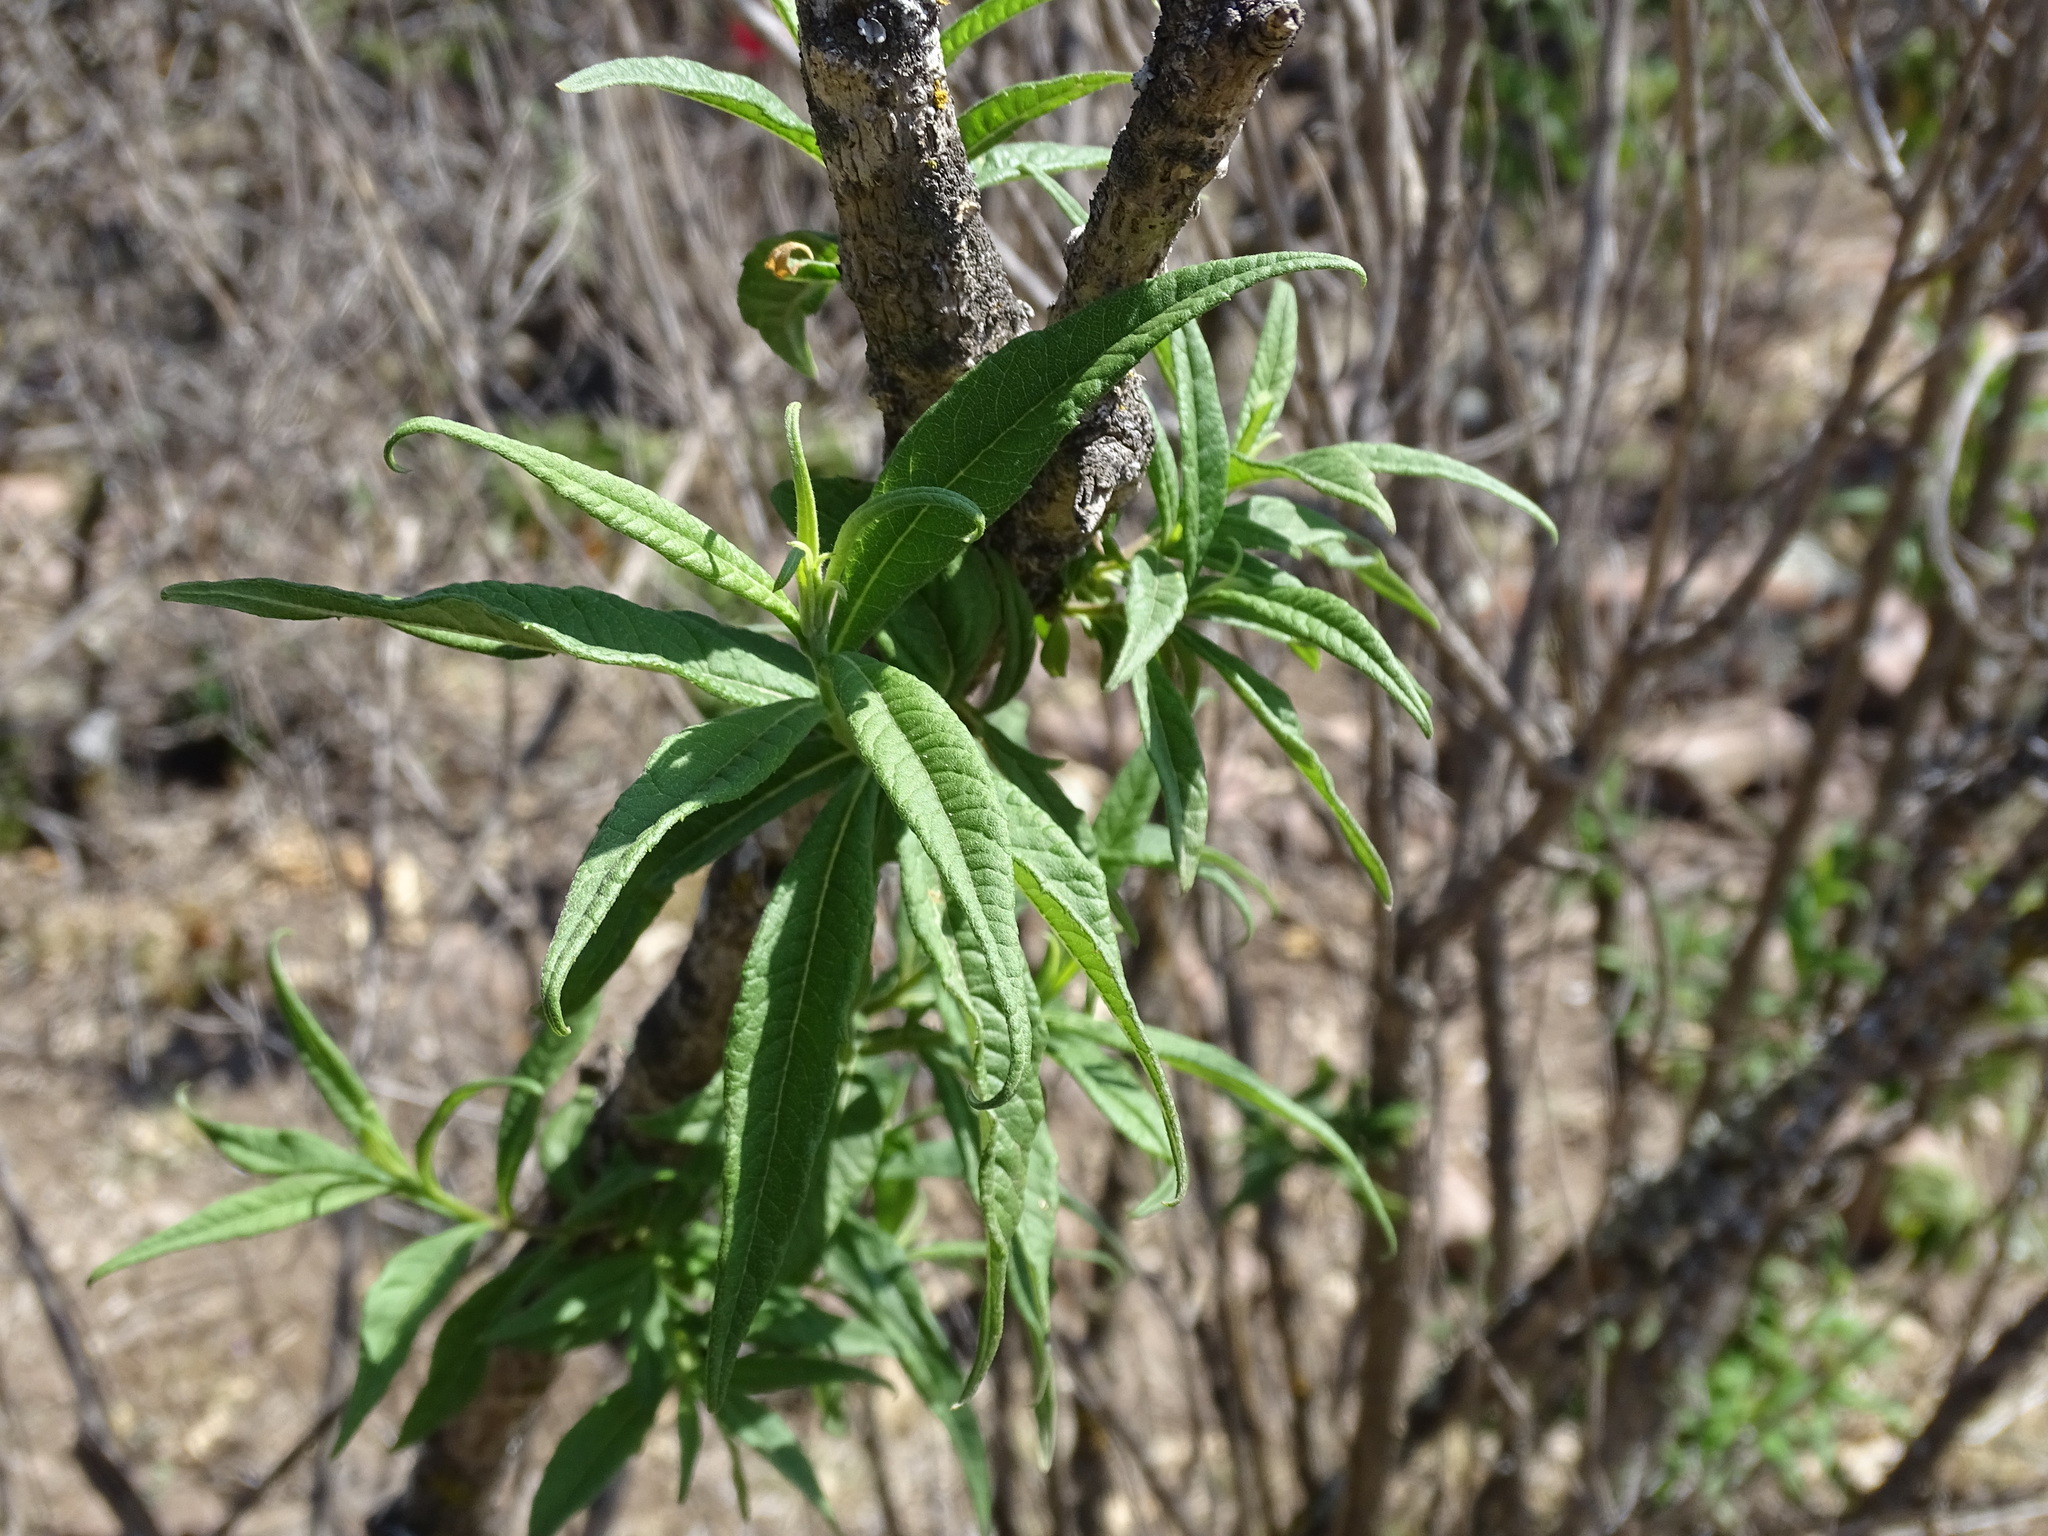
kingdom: Plantae
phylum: Tracheophyta
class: Magnoliopsida
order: Asterales
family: Asteraceae
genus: Verbesina
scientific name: Verbesina virgata
